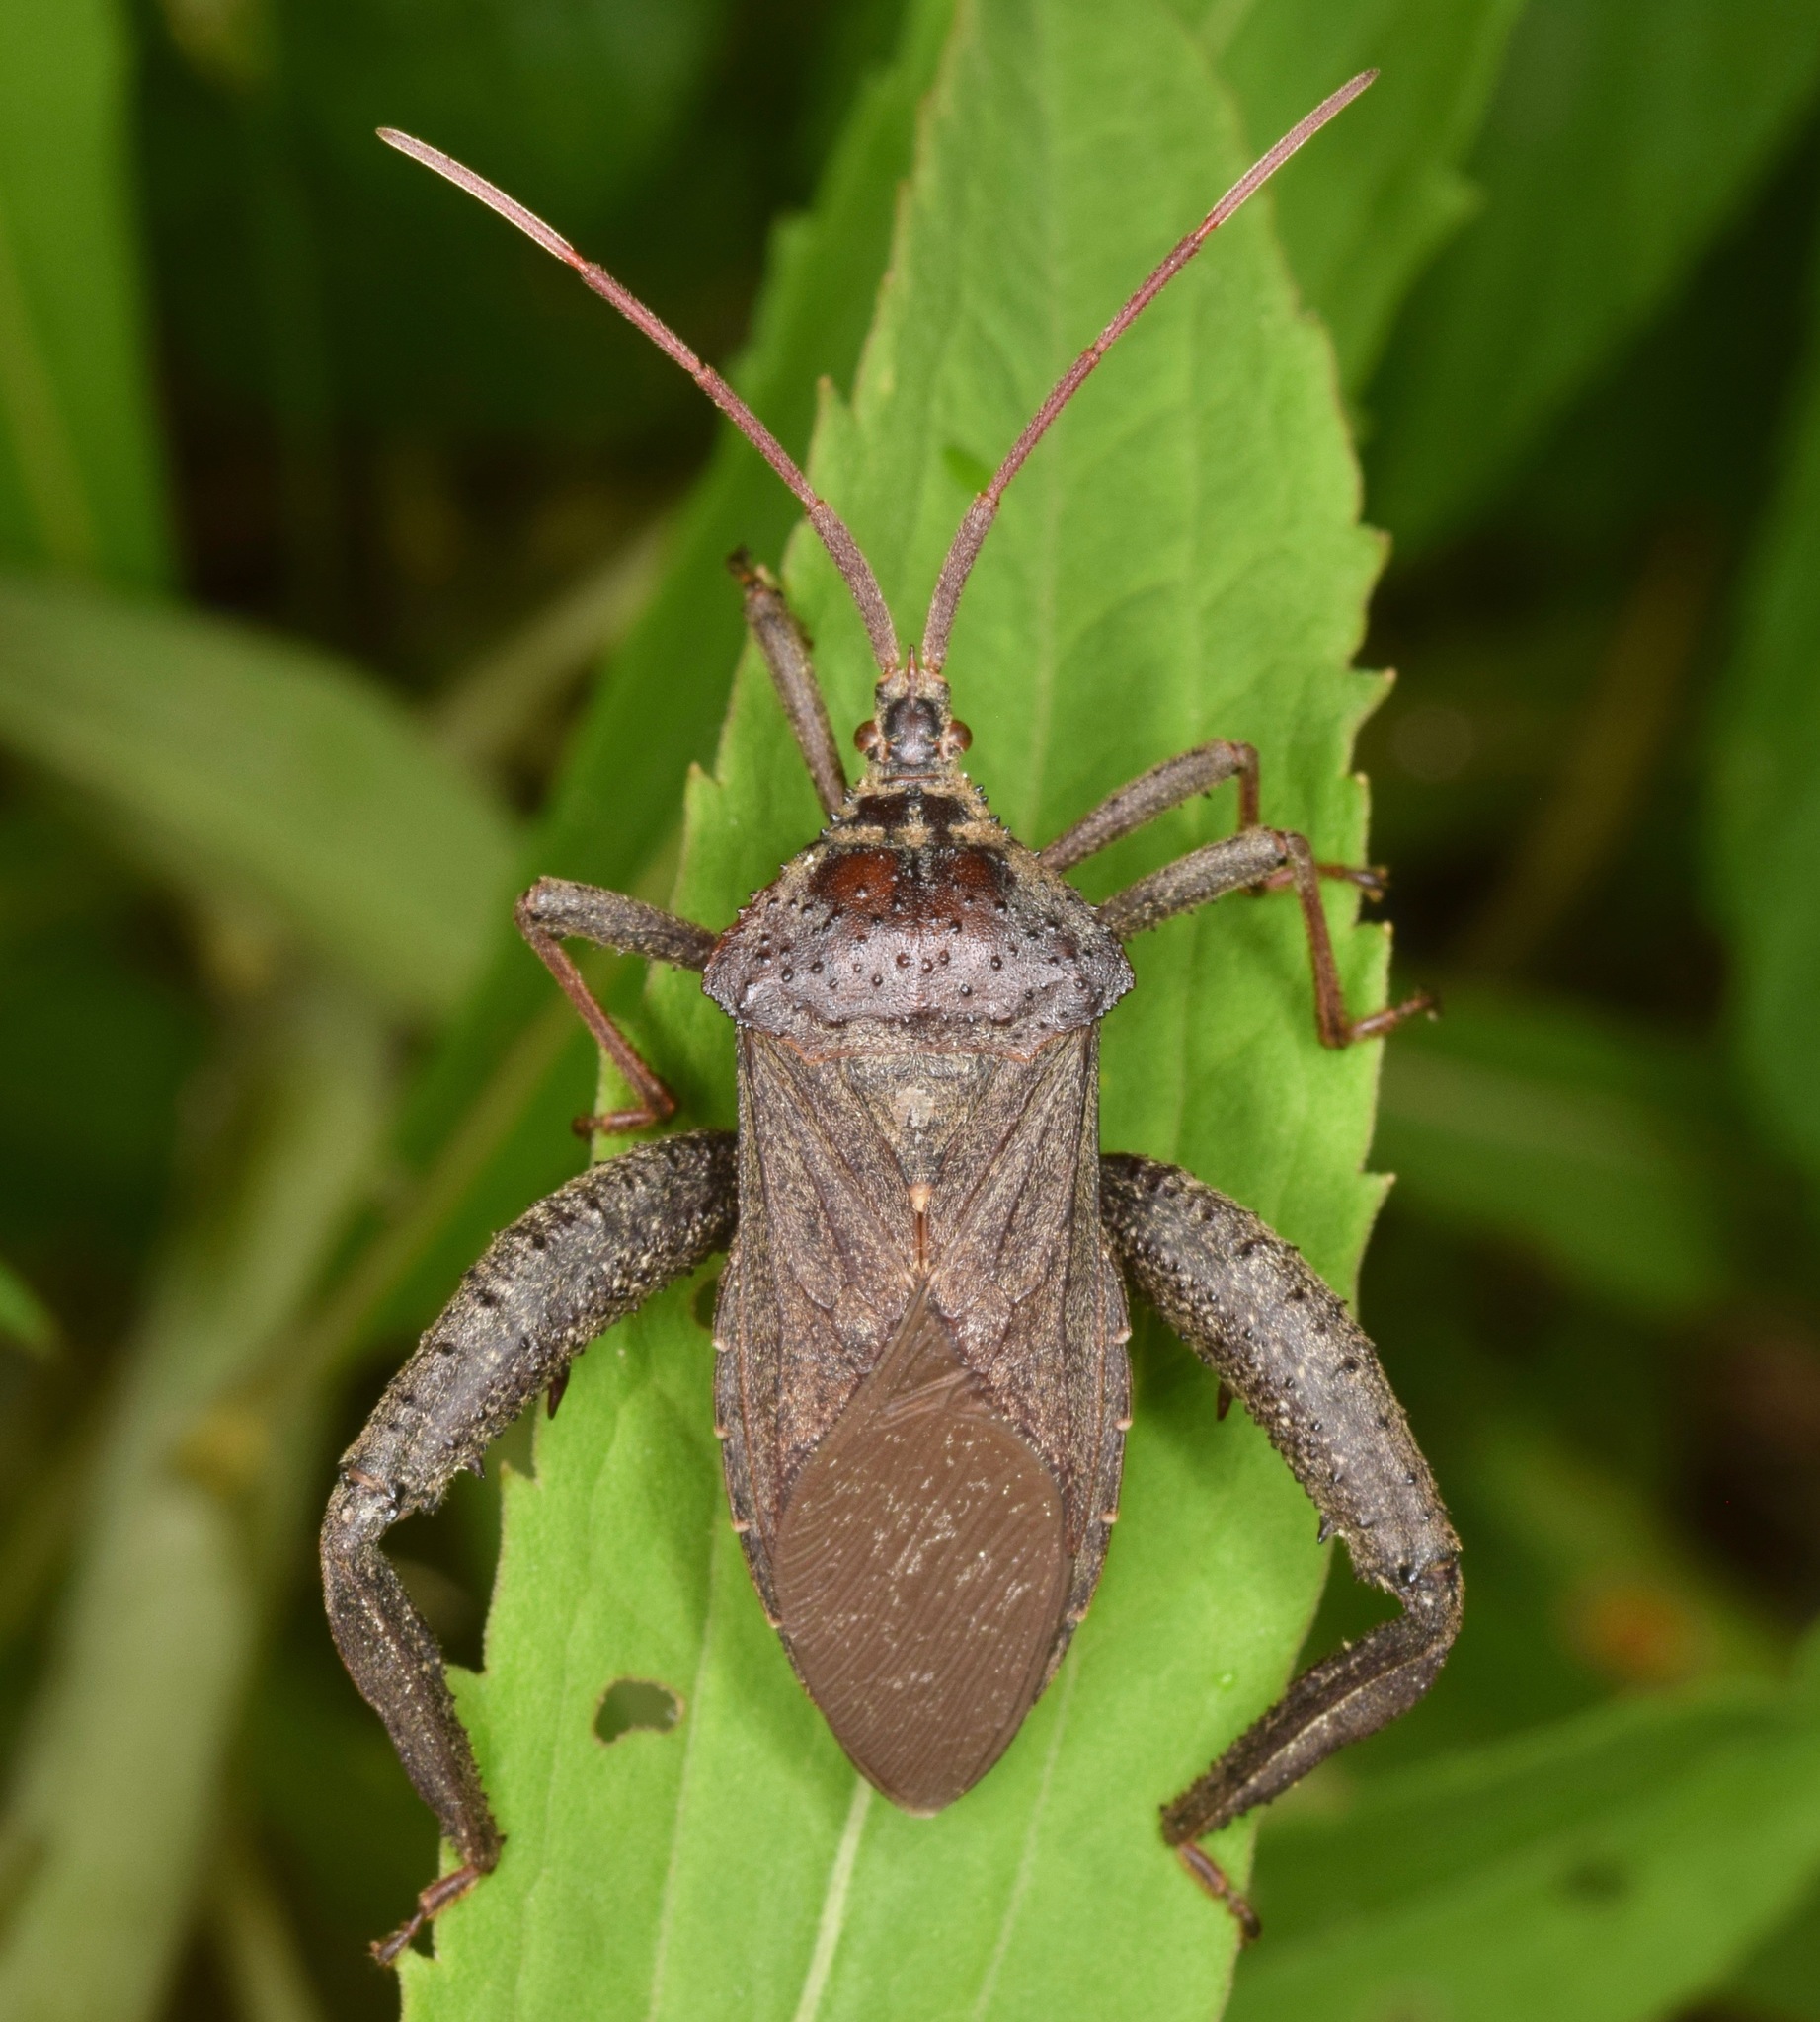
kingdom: Animalia
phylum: Arthropoda
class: Insecta
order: Hemiptera
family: Coreidae
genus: Acanthocephala
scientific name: Acanthocephala femorata
